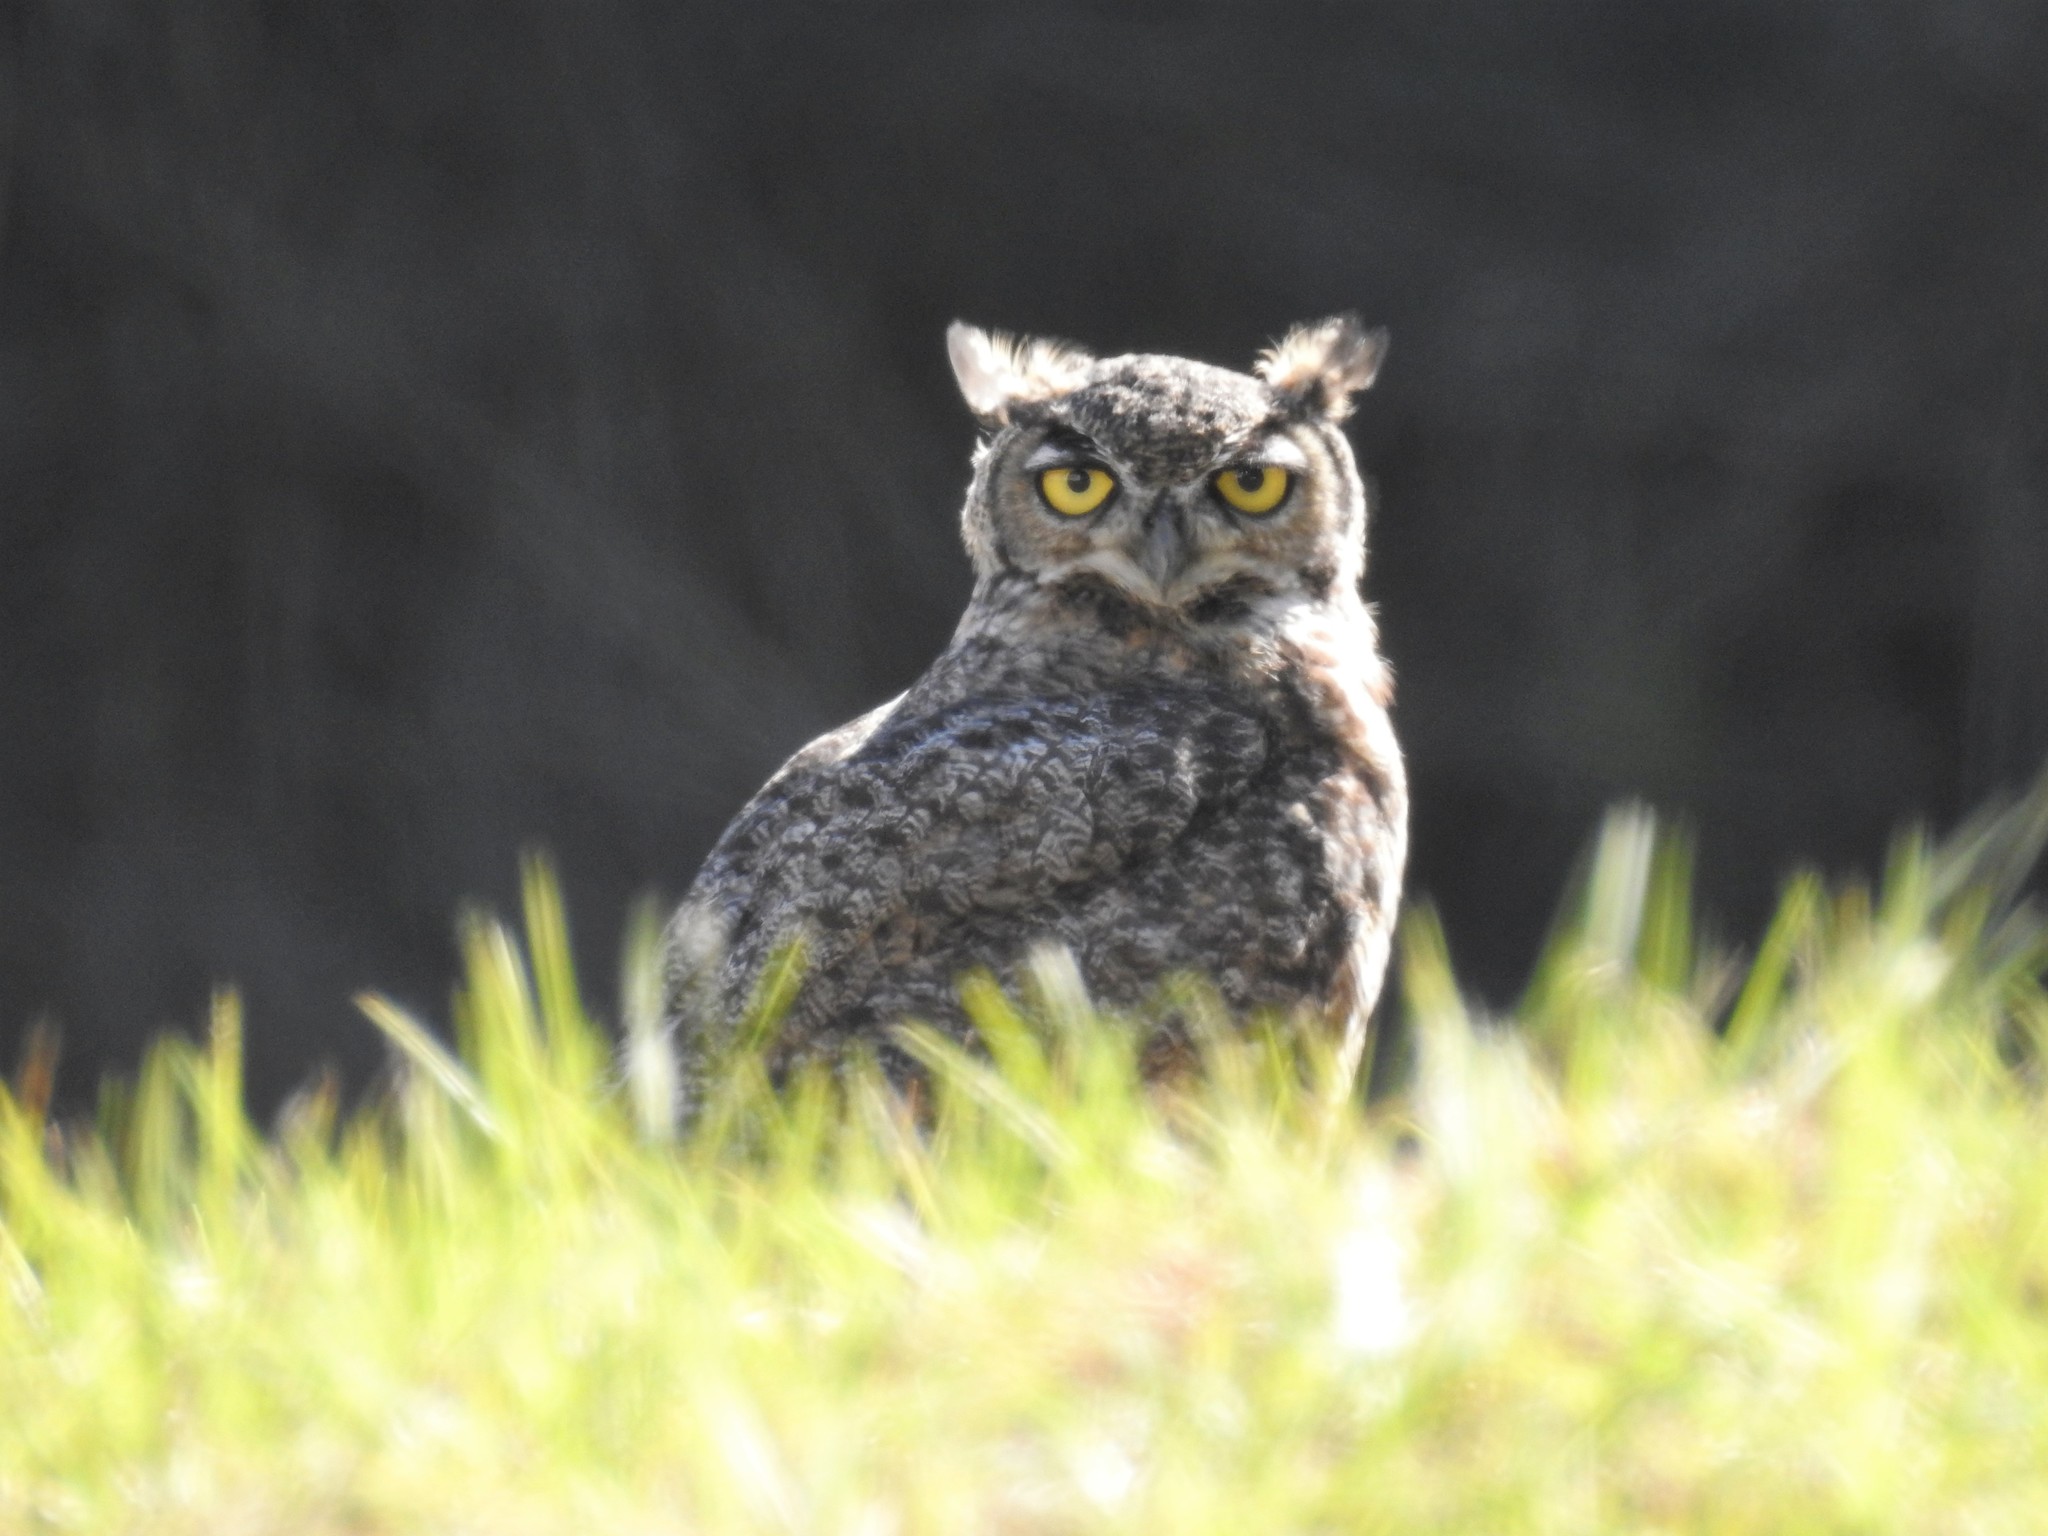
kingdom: Animalia
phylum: Chordata
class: Aves
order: Strigiformes
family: Strigidae
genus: Bubo
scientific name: Bubo virginianus
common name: Great horned owl
